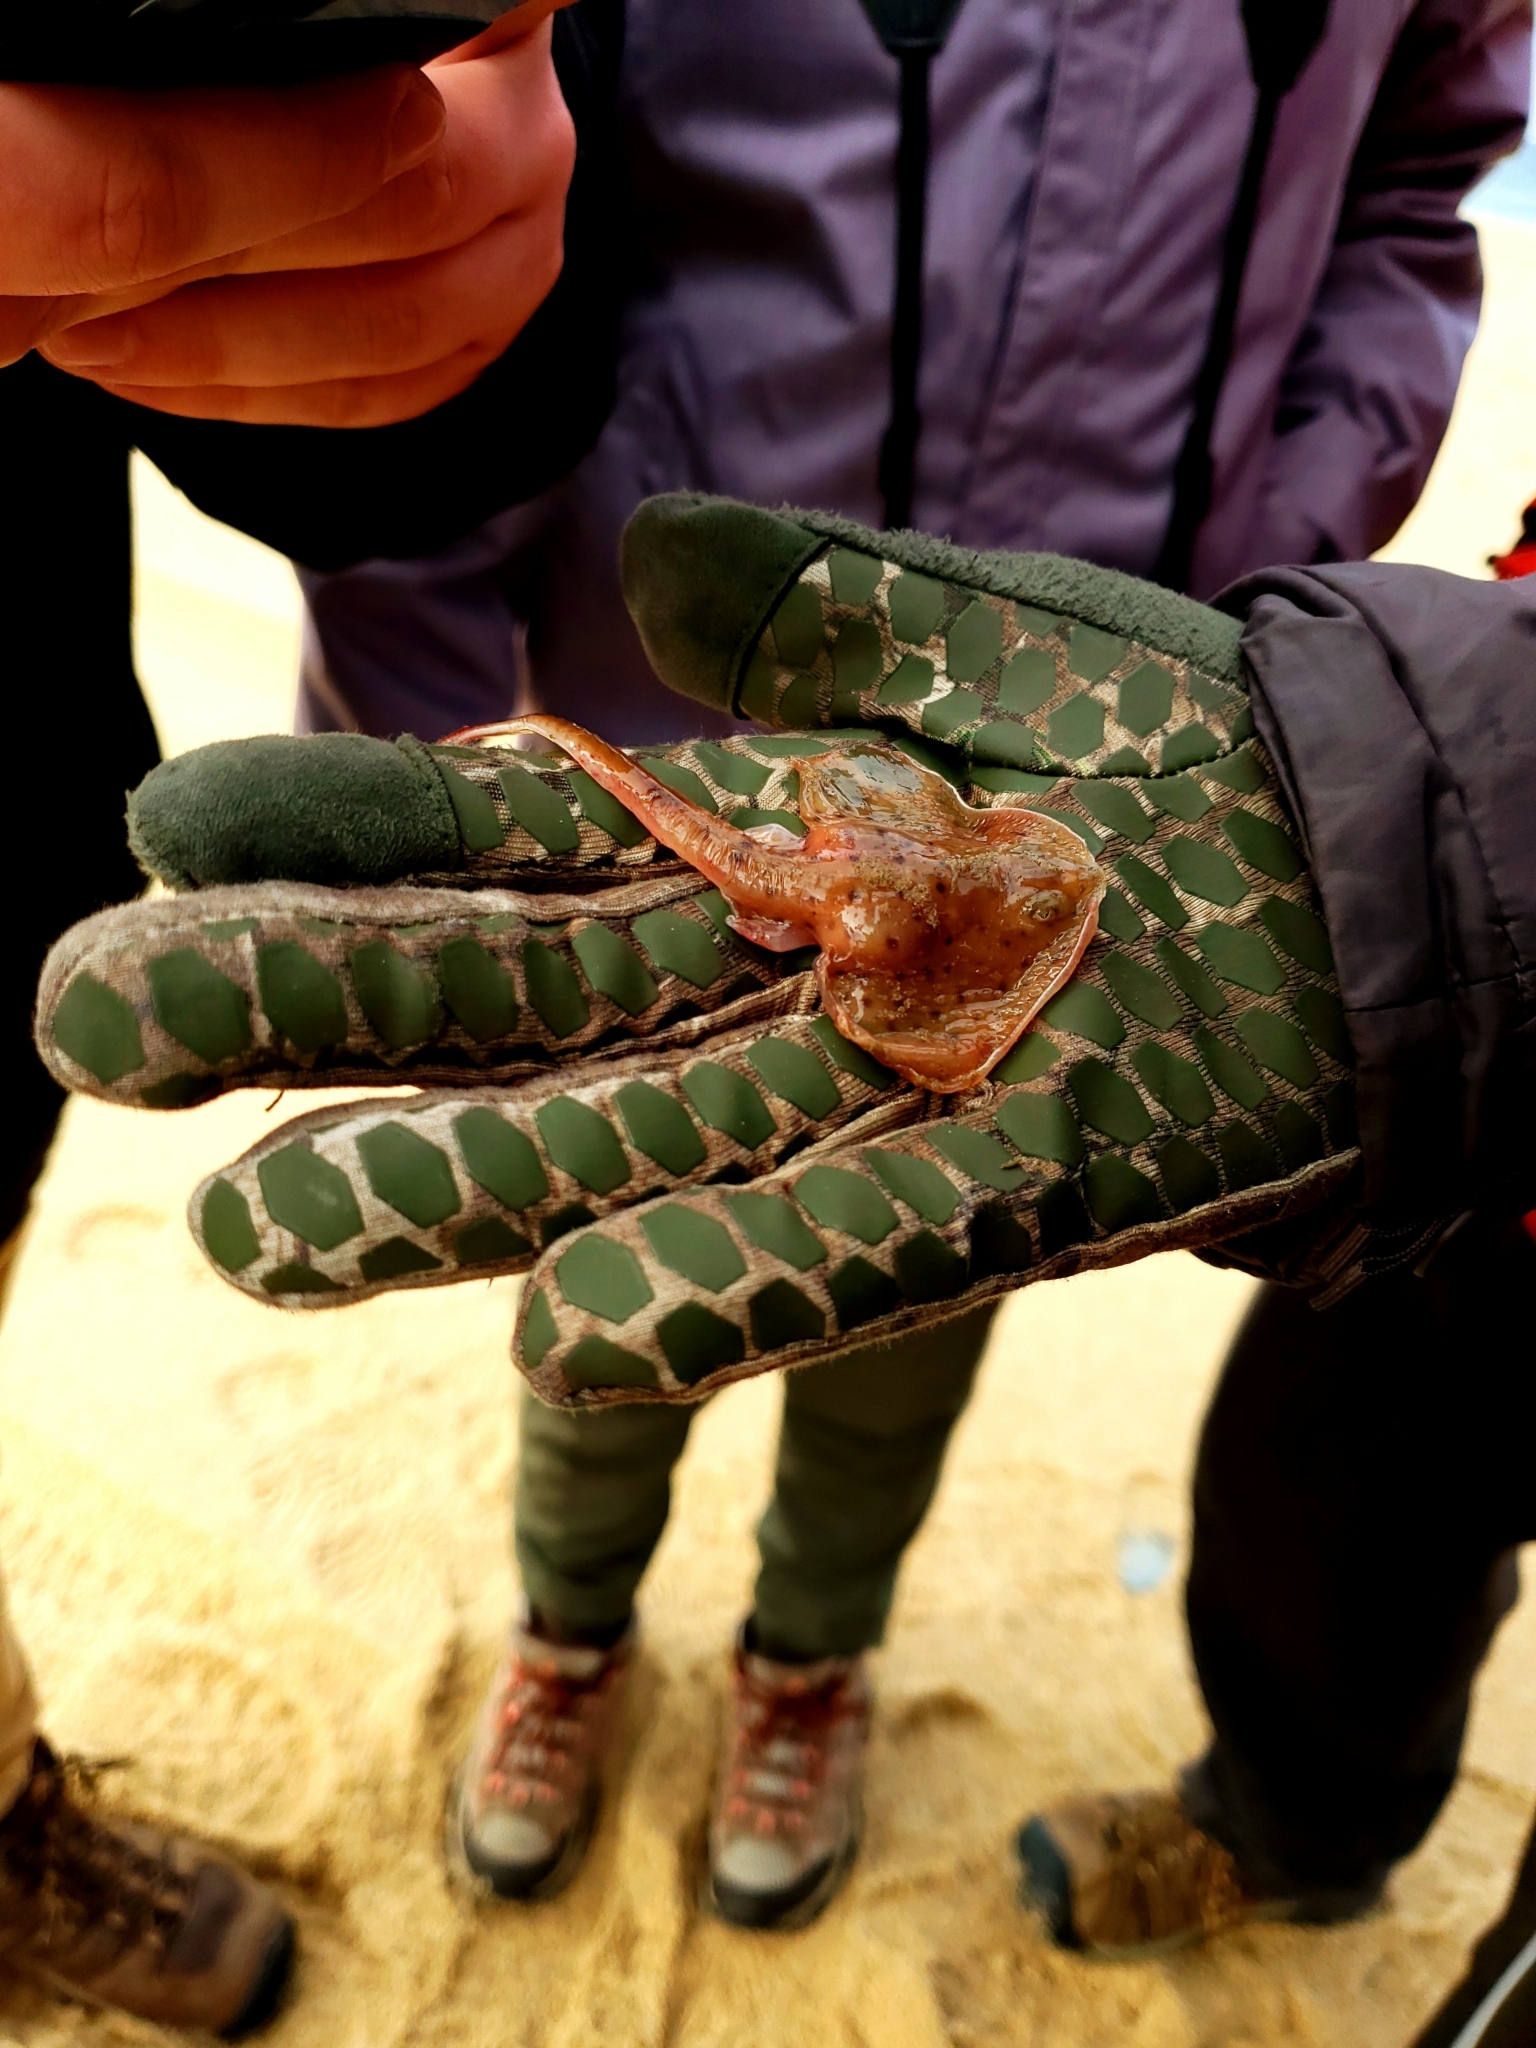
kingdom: Animalia
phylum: Chordata
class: Elasmobranchii
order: Rajiformes
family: Rajidae
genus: Leucoraja
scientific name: Leucoraja erinacea
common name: Little skate
